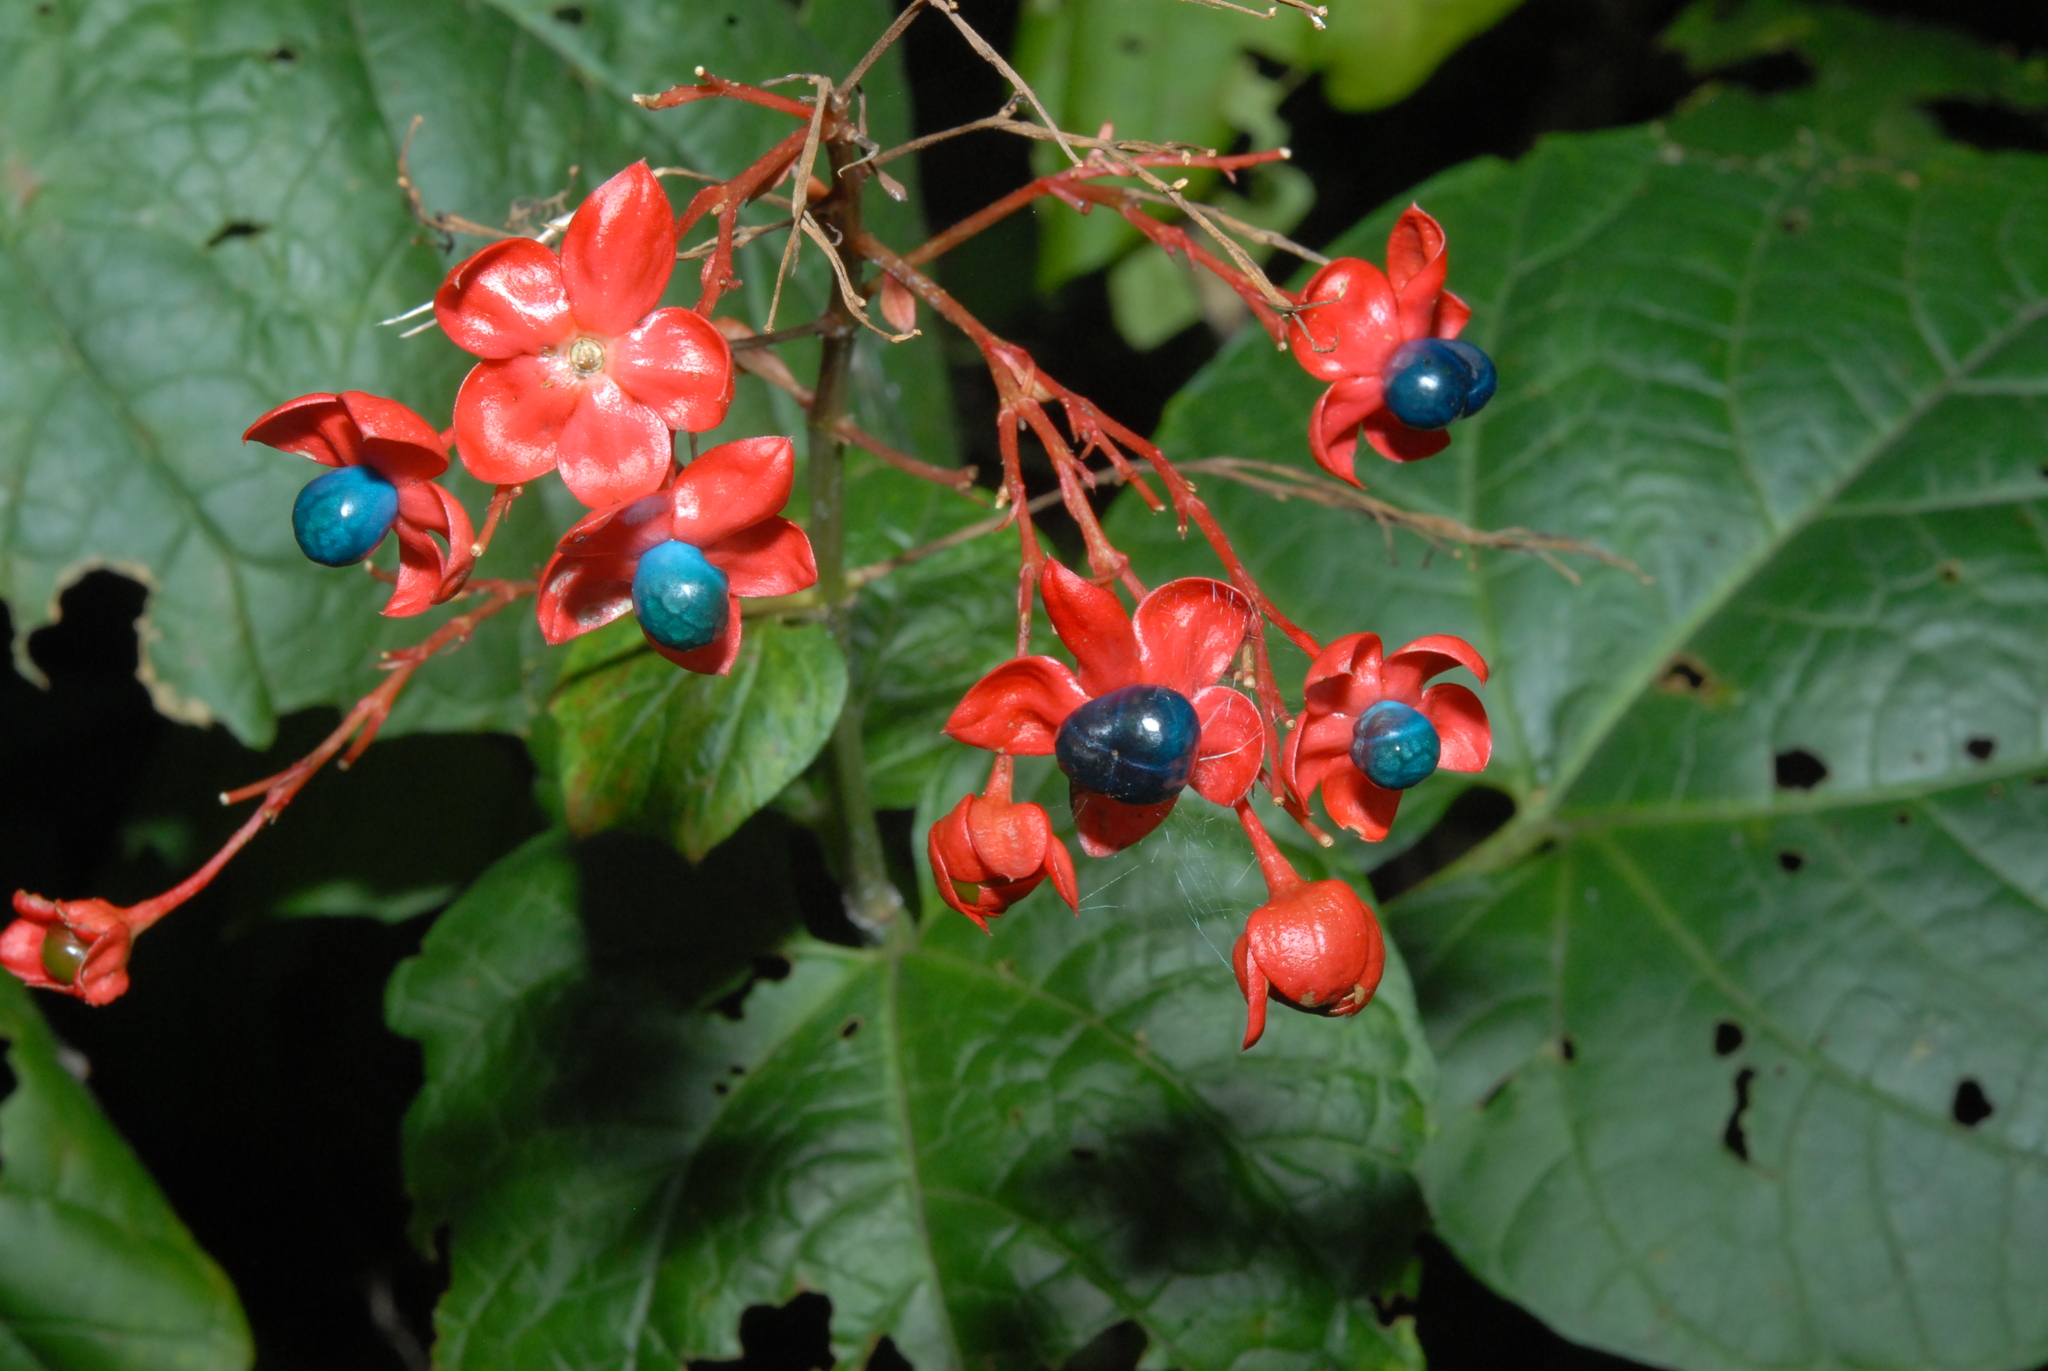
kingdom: Plantae
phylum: Tracheophyta
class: Magnoliopsida
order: Lamiales
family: Lamiaceae
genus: Clerodendrum
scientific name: Clerodendrum japonicum
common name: Japanese glorybower
